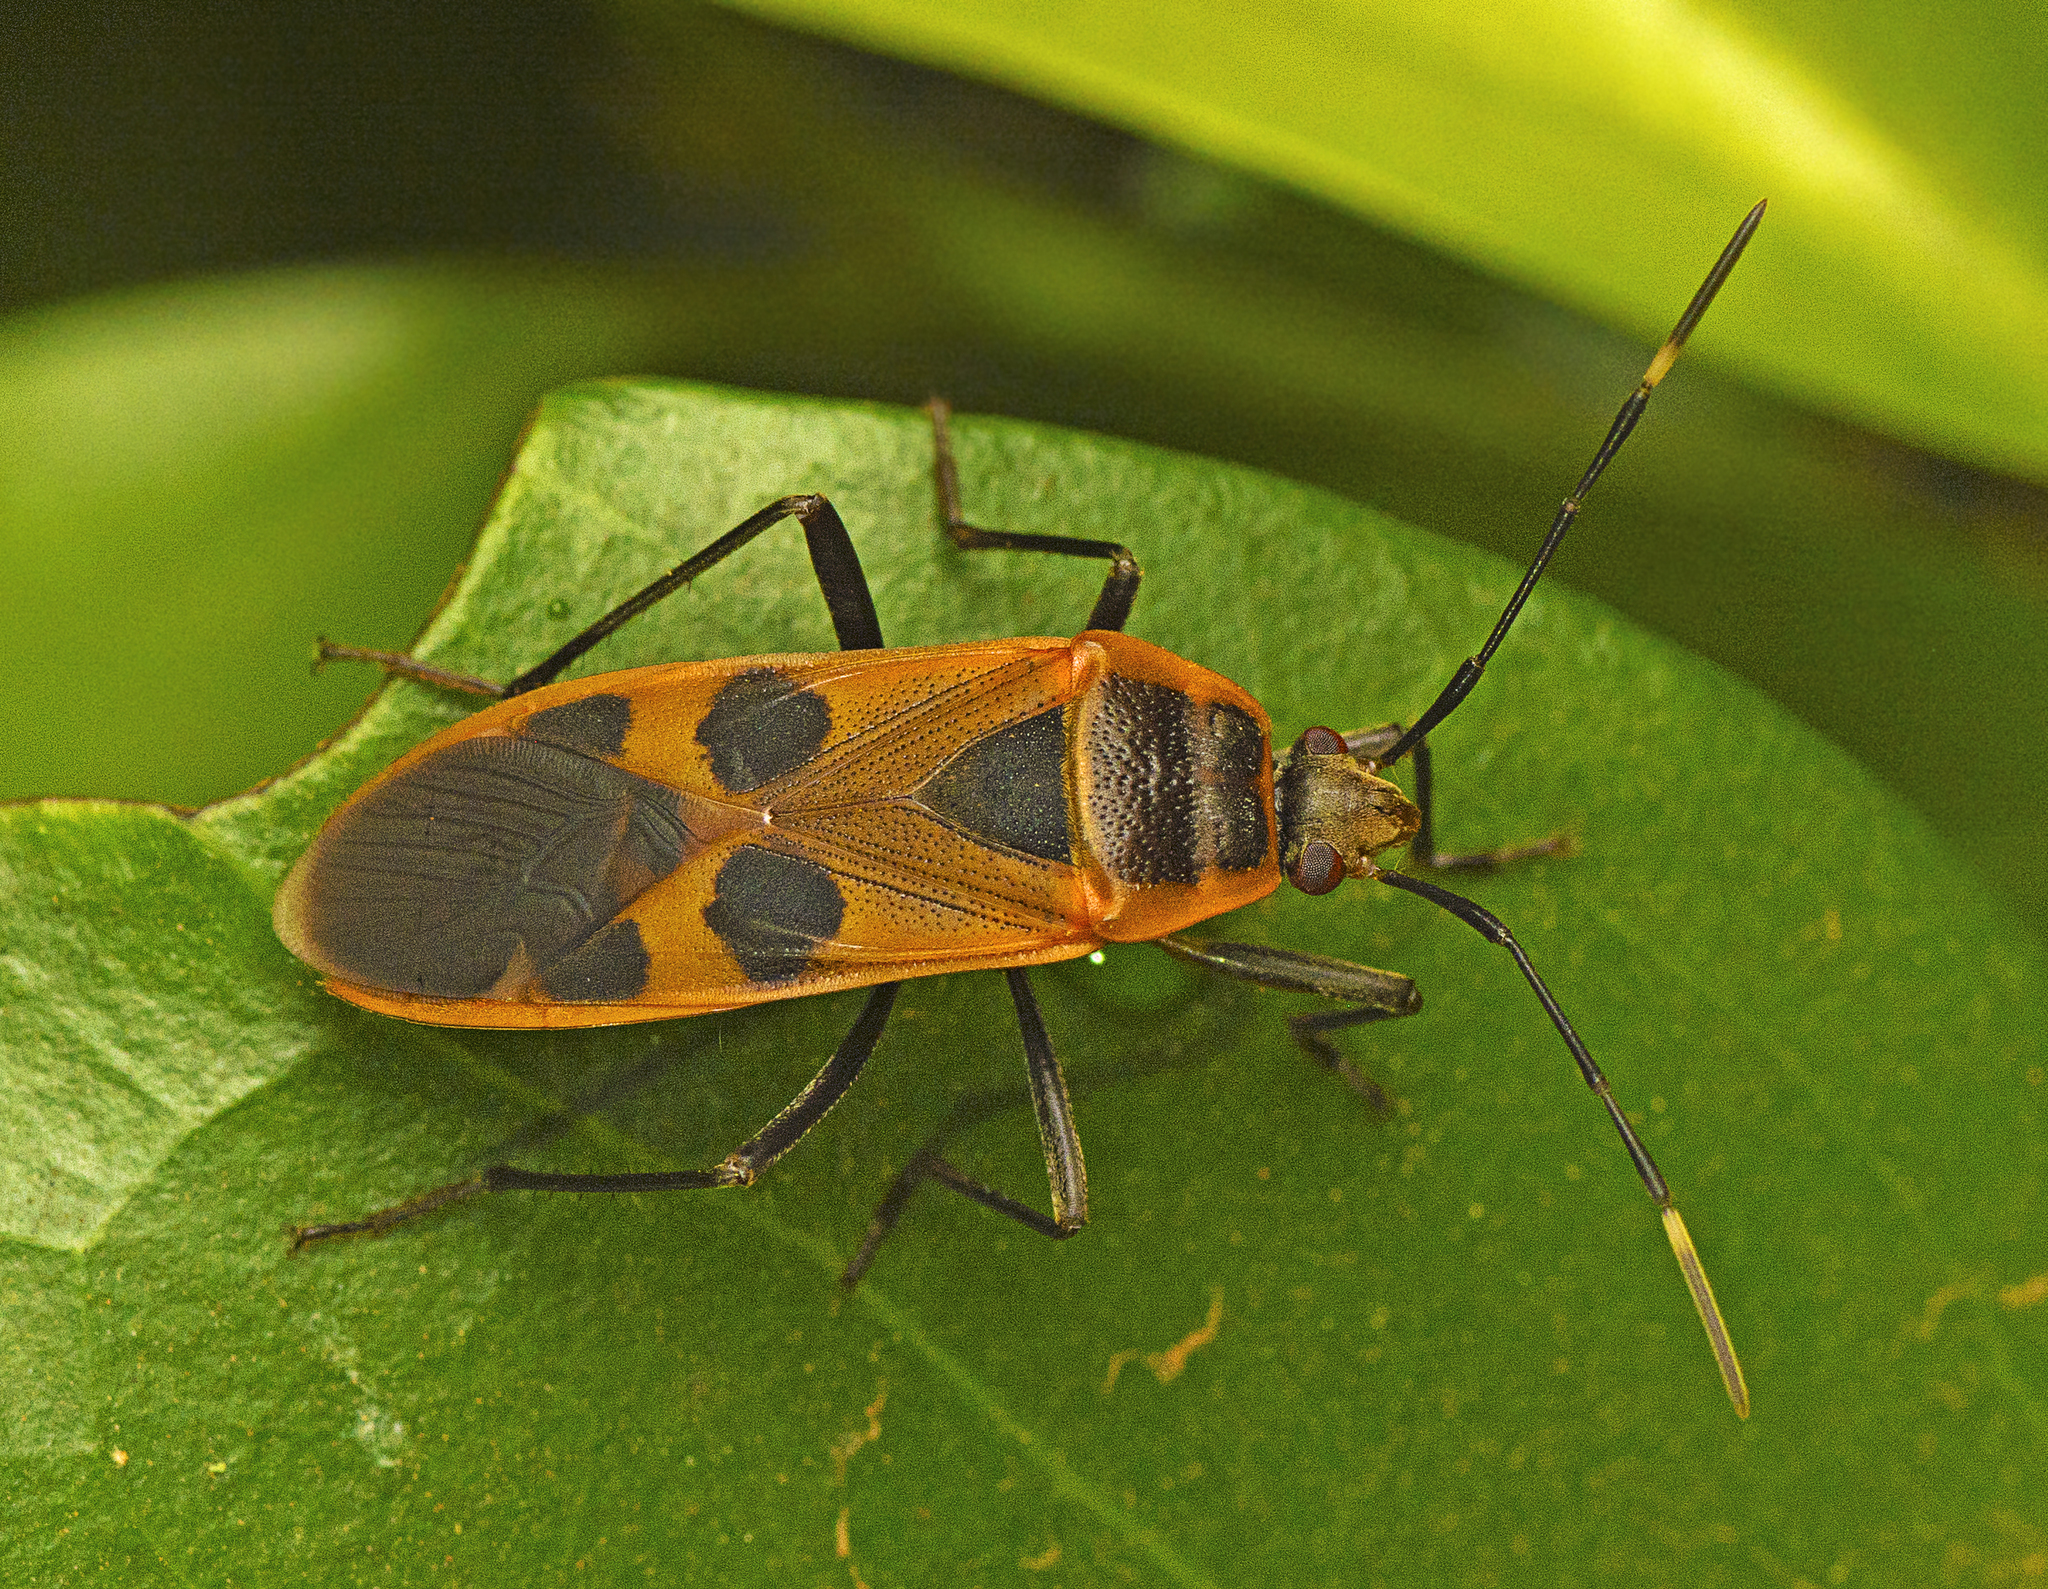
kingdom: Animalia
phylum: Arthropoda
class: Insecta
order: Hemiptera
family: Largidae
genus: Physopelta
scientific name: Physopelta gutta
